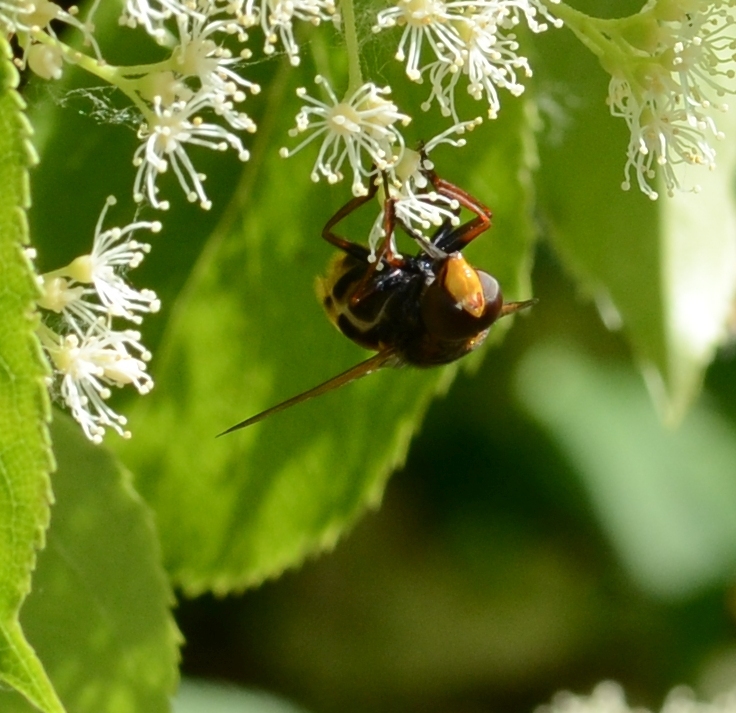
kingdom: Animalia
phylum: Arthropoda
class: Insecta
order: Diptera
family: Syrphidae
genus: Volucella
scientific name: Volucella zonaria
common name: Hornet hoverfly
